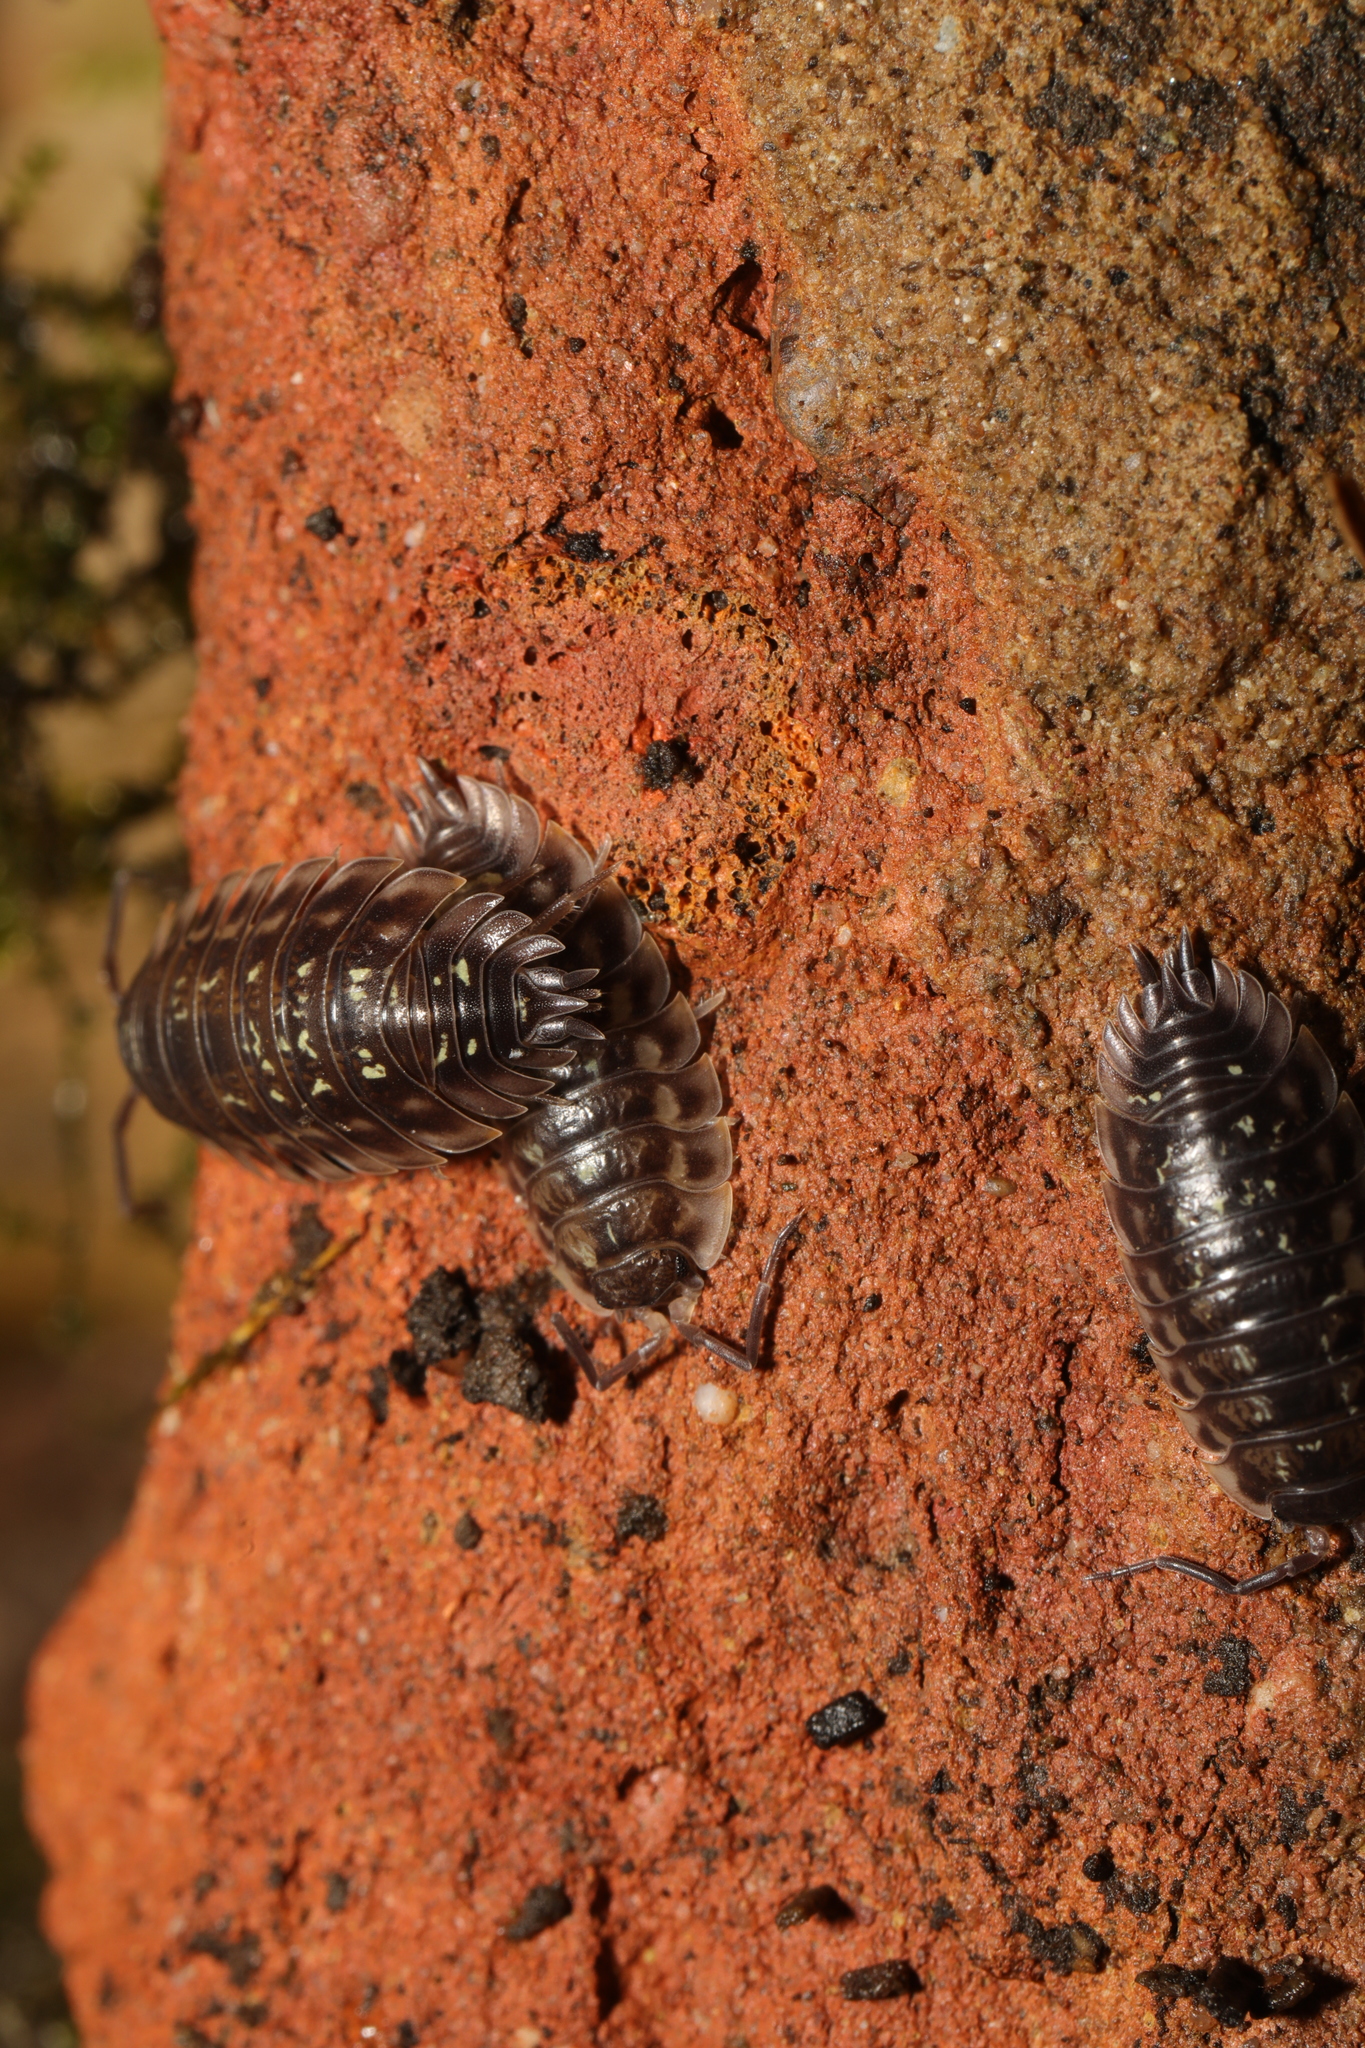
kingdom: Animalia
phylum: Arthropoda
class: Malacostraca
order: Isopoda
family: Oniscidae
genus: Oniscus
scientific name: Oniscus asellus
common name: Common shiny woodlouse
